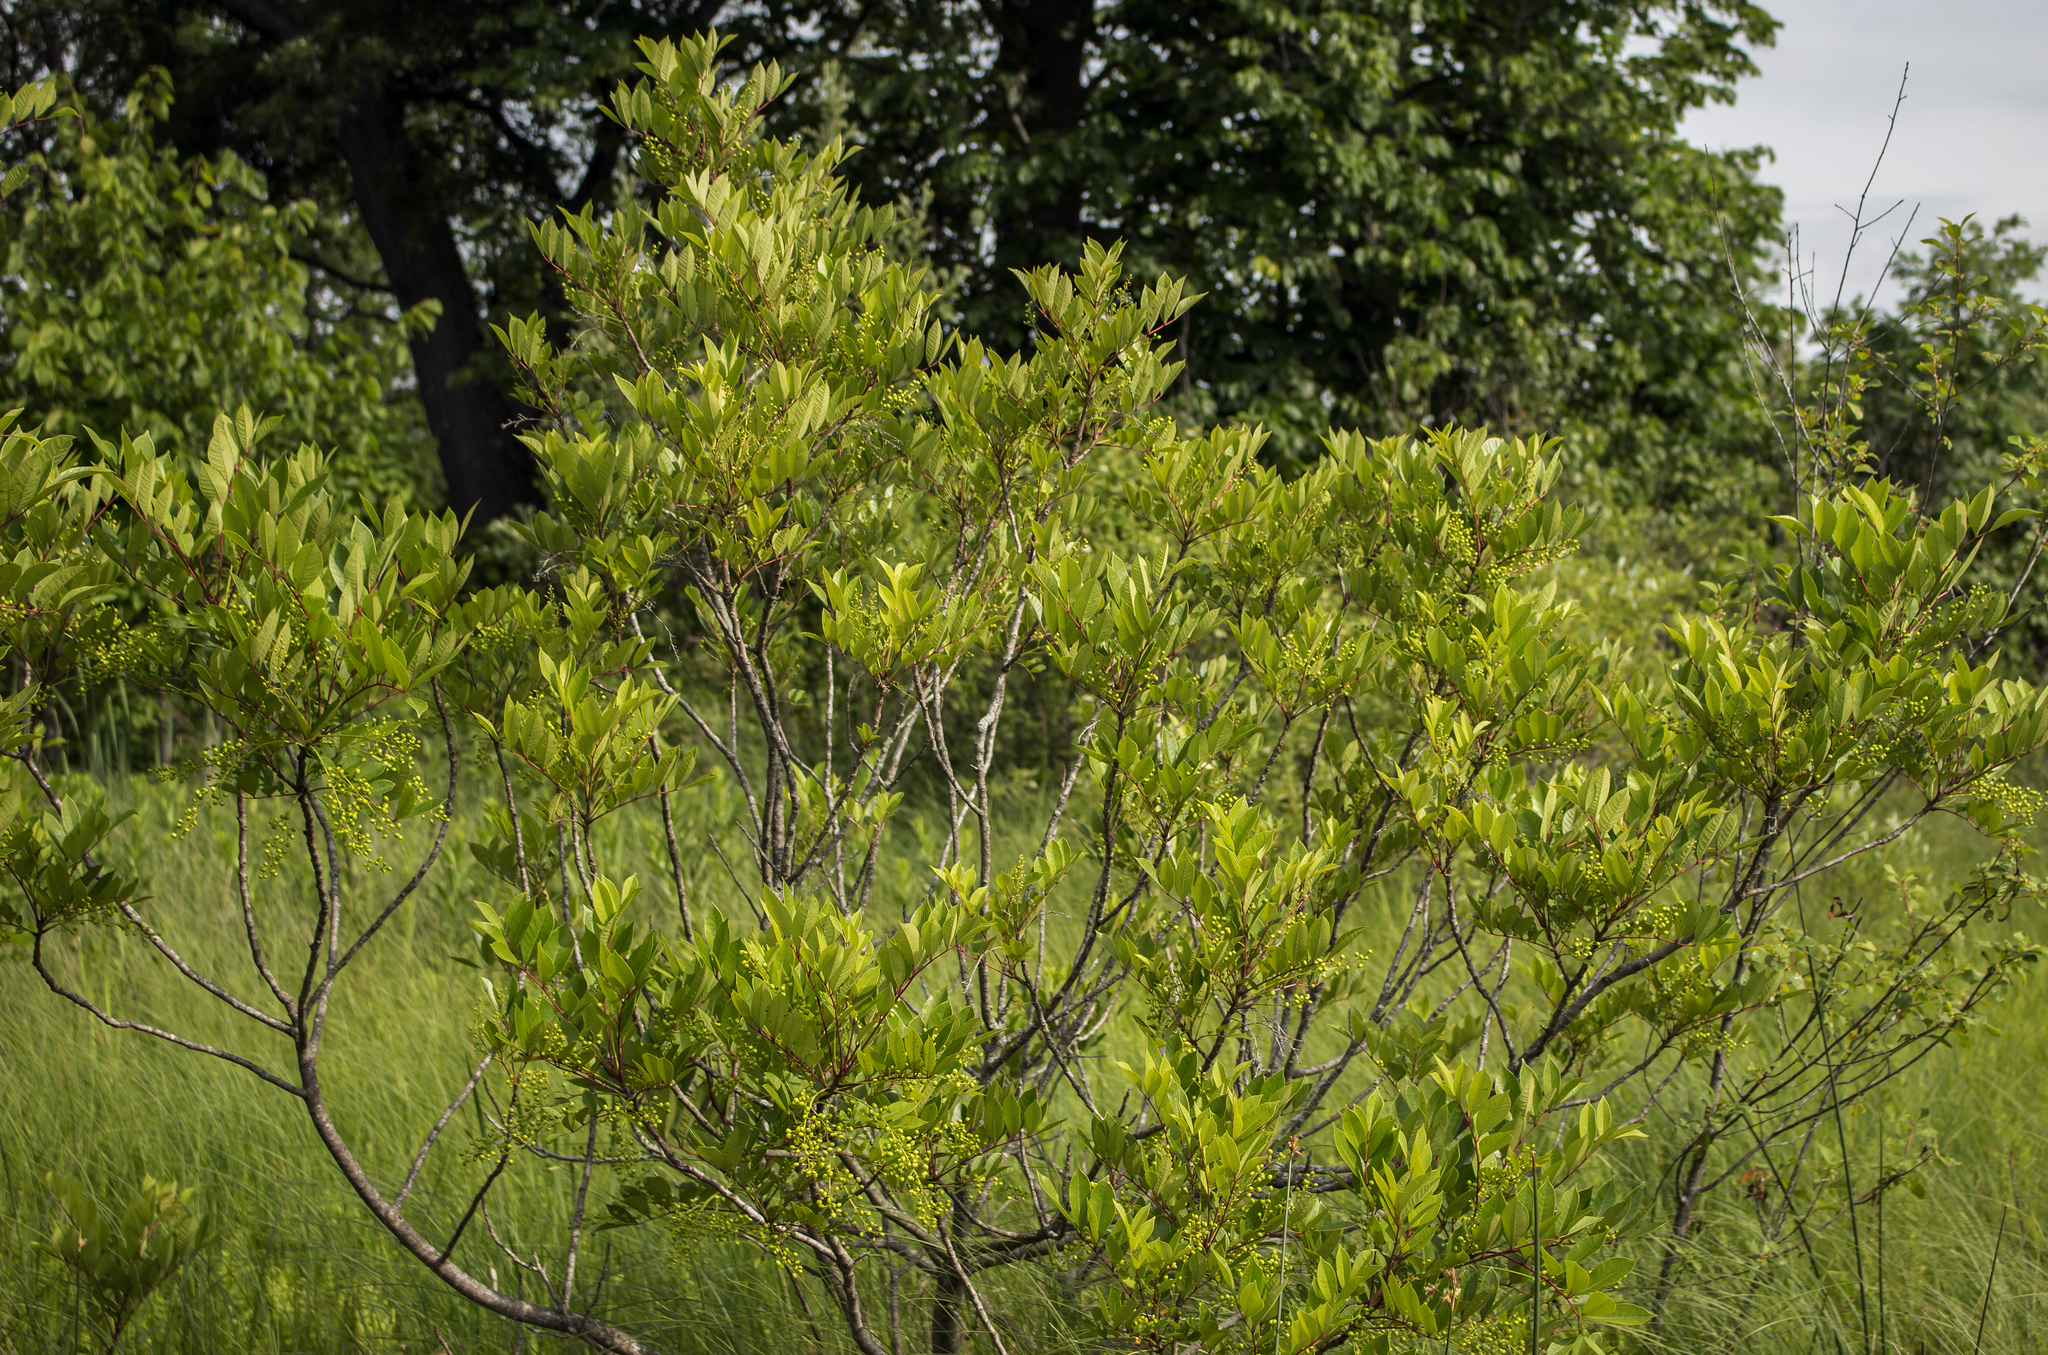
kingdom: Plantae
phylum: Tracheophyta
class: Magnoliopsida
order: Sapindales
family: Anacardiaceae
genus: Toxicodendron
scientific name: Toxicodendron vernix
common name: Poison sumac
